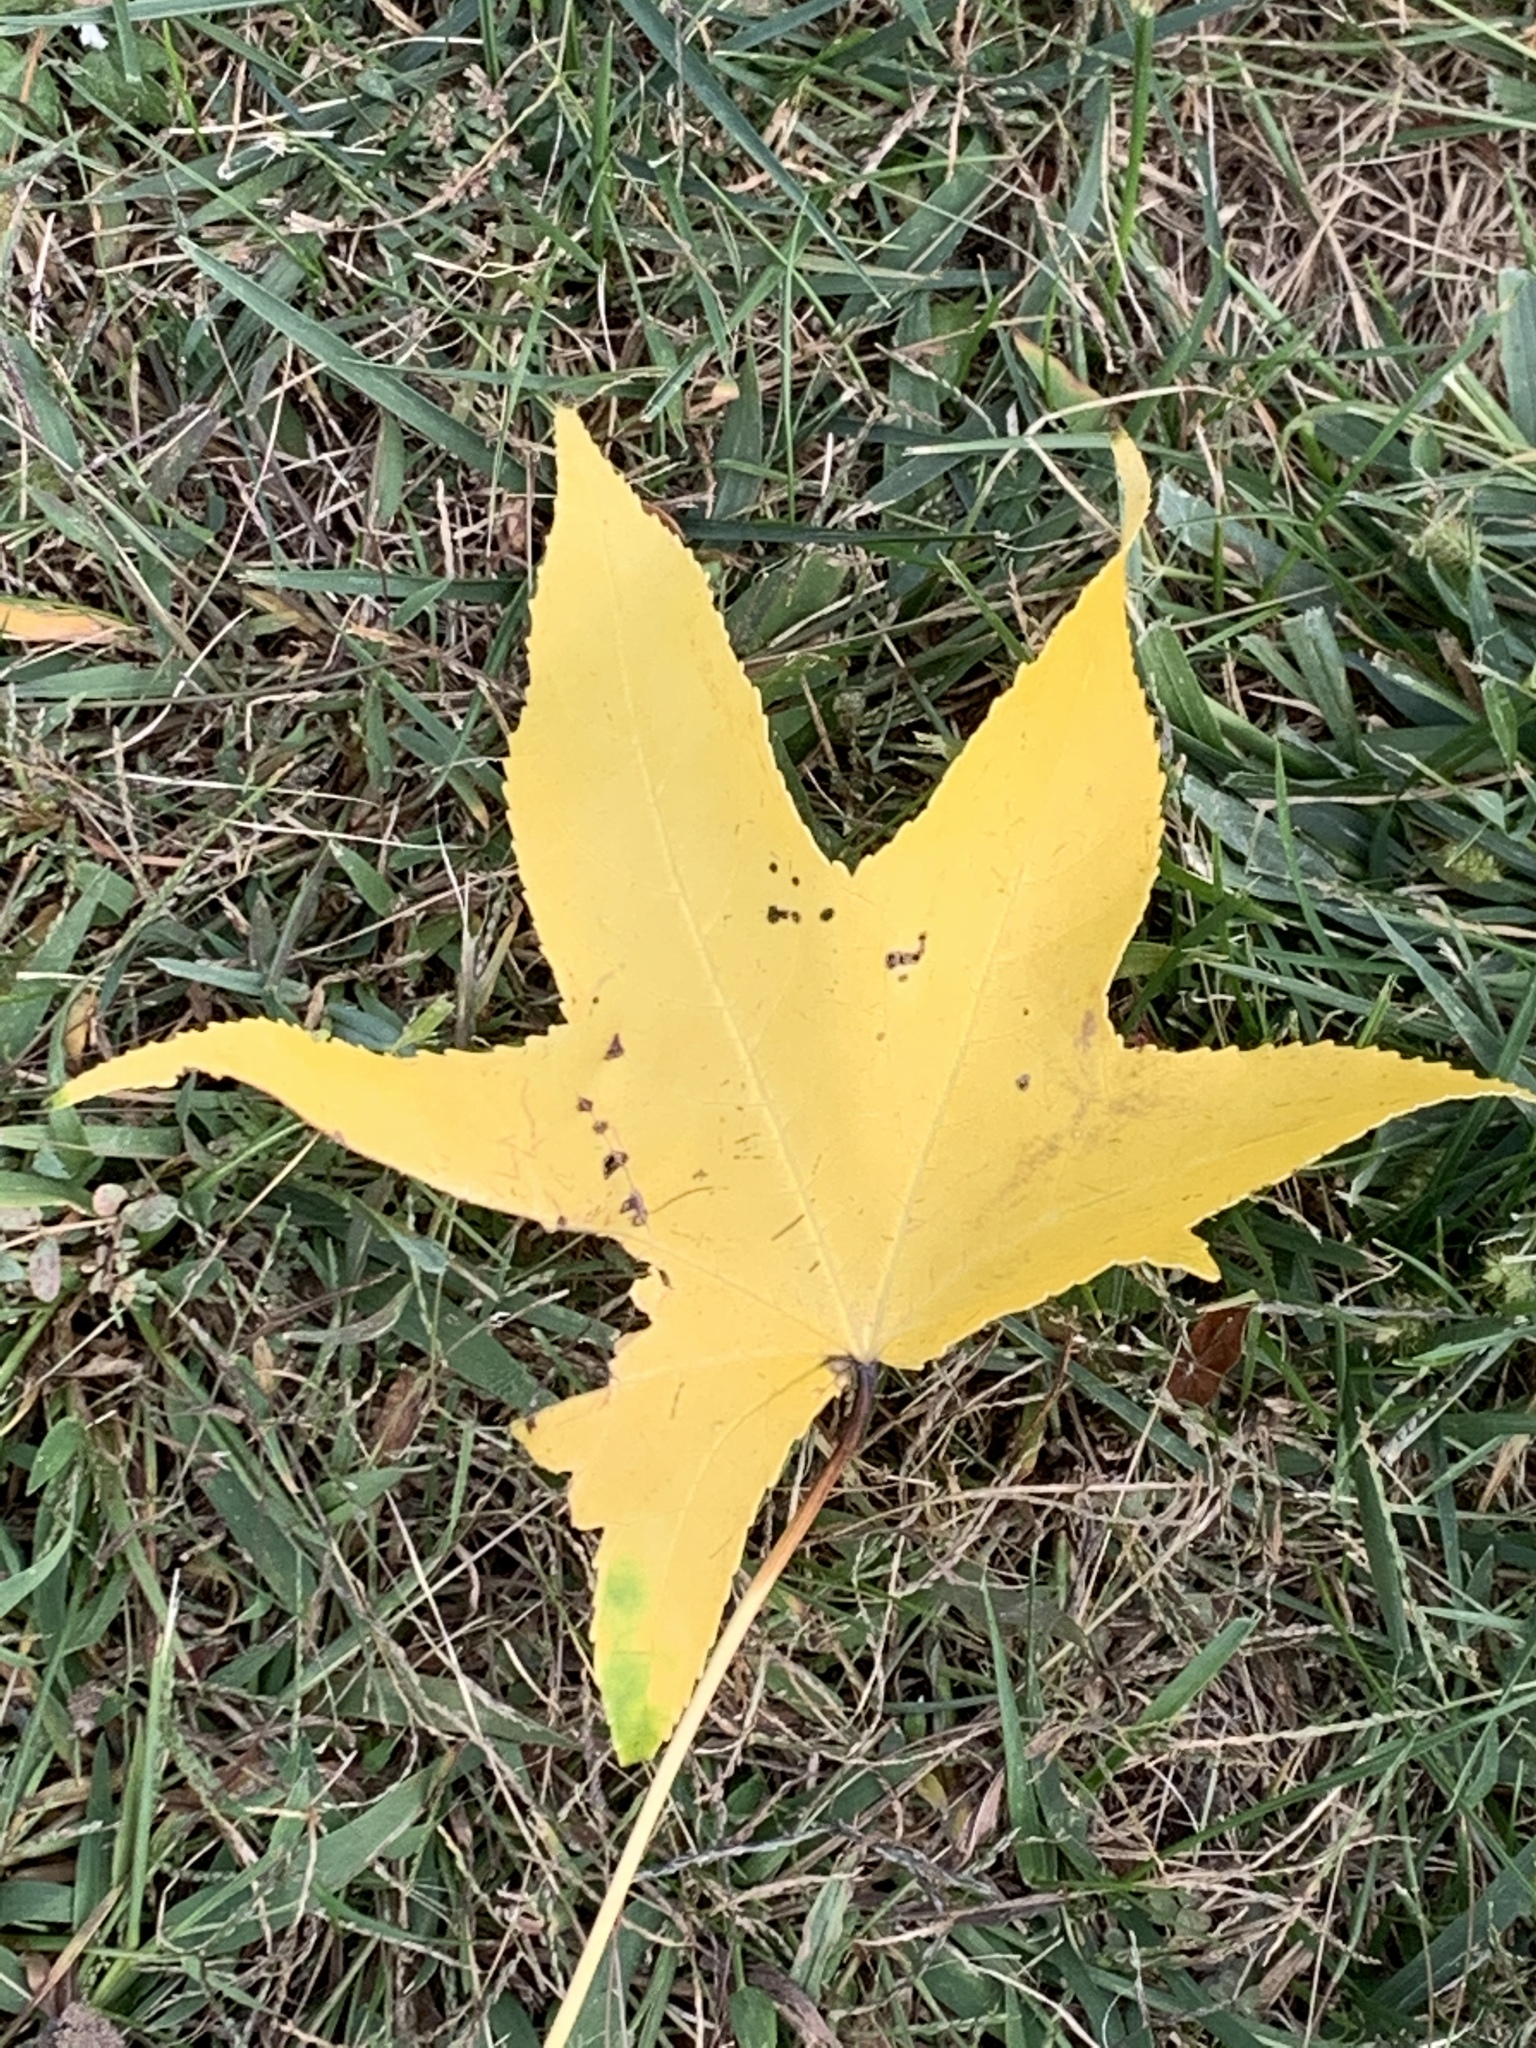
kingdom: Plantae
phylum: Tracheophyta
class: Magnoliopsida
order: Saxifragales
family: Altingiaceae
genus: Liquidambar
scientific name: Liquidambar styraciflua
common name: Sweet gum
